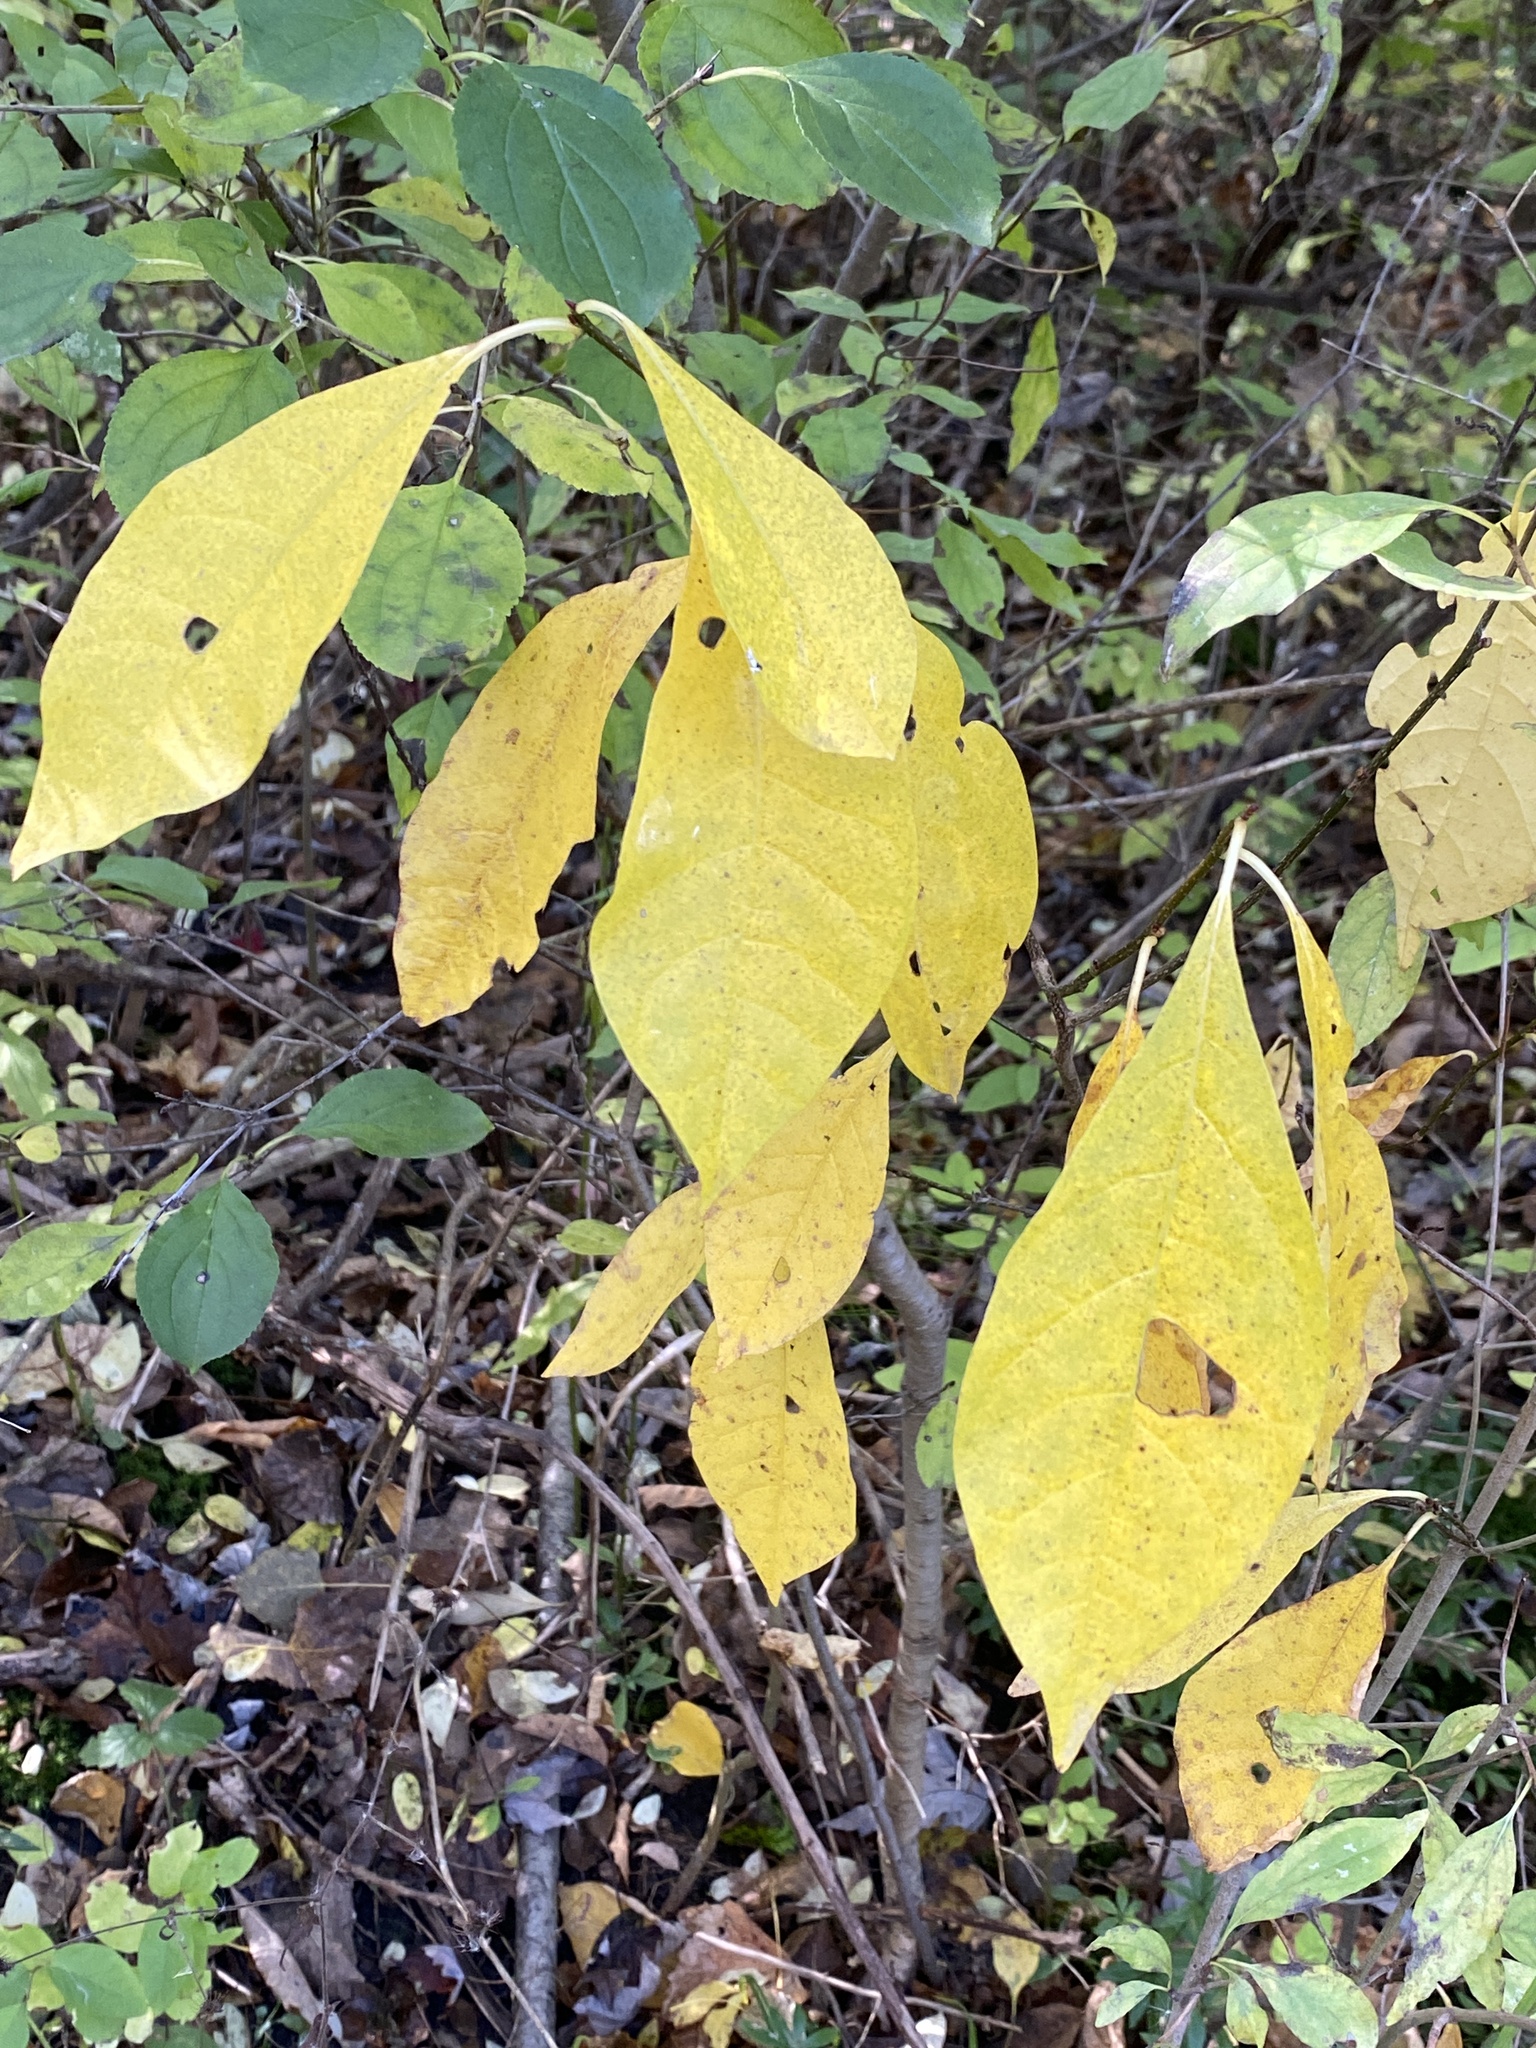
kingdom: Plantae
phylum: Tracheophyta
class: Magnoliopsida
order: Laurales
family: Lauraceae
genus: Lindera
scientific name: Lindera benzoin
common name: Spicebush
